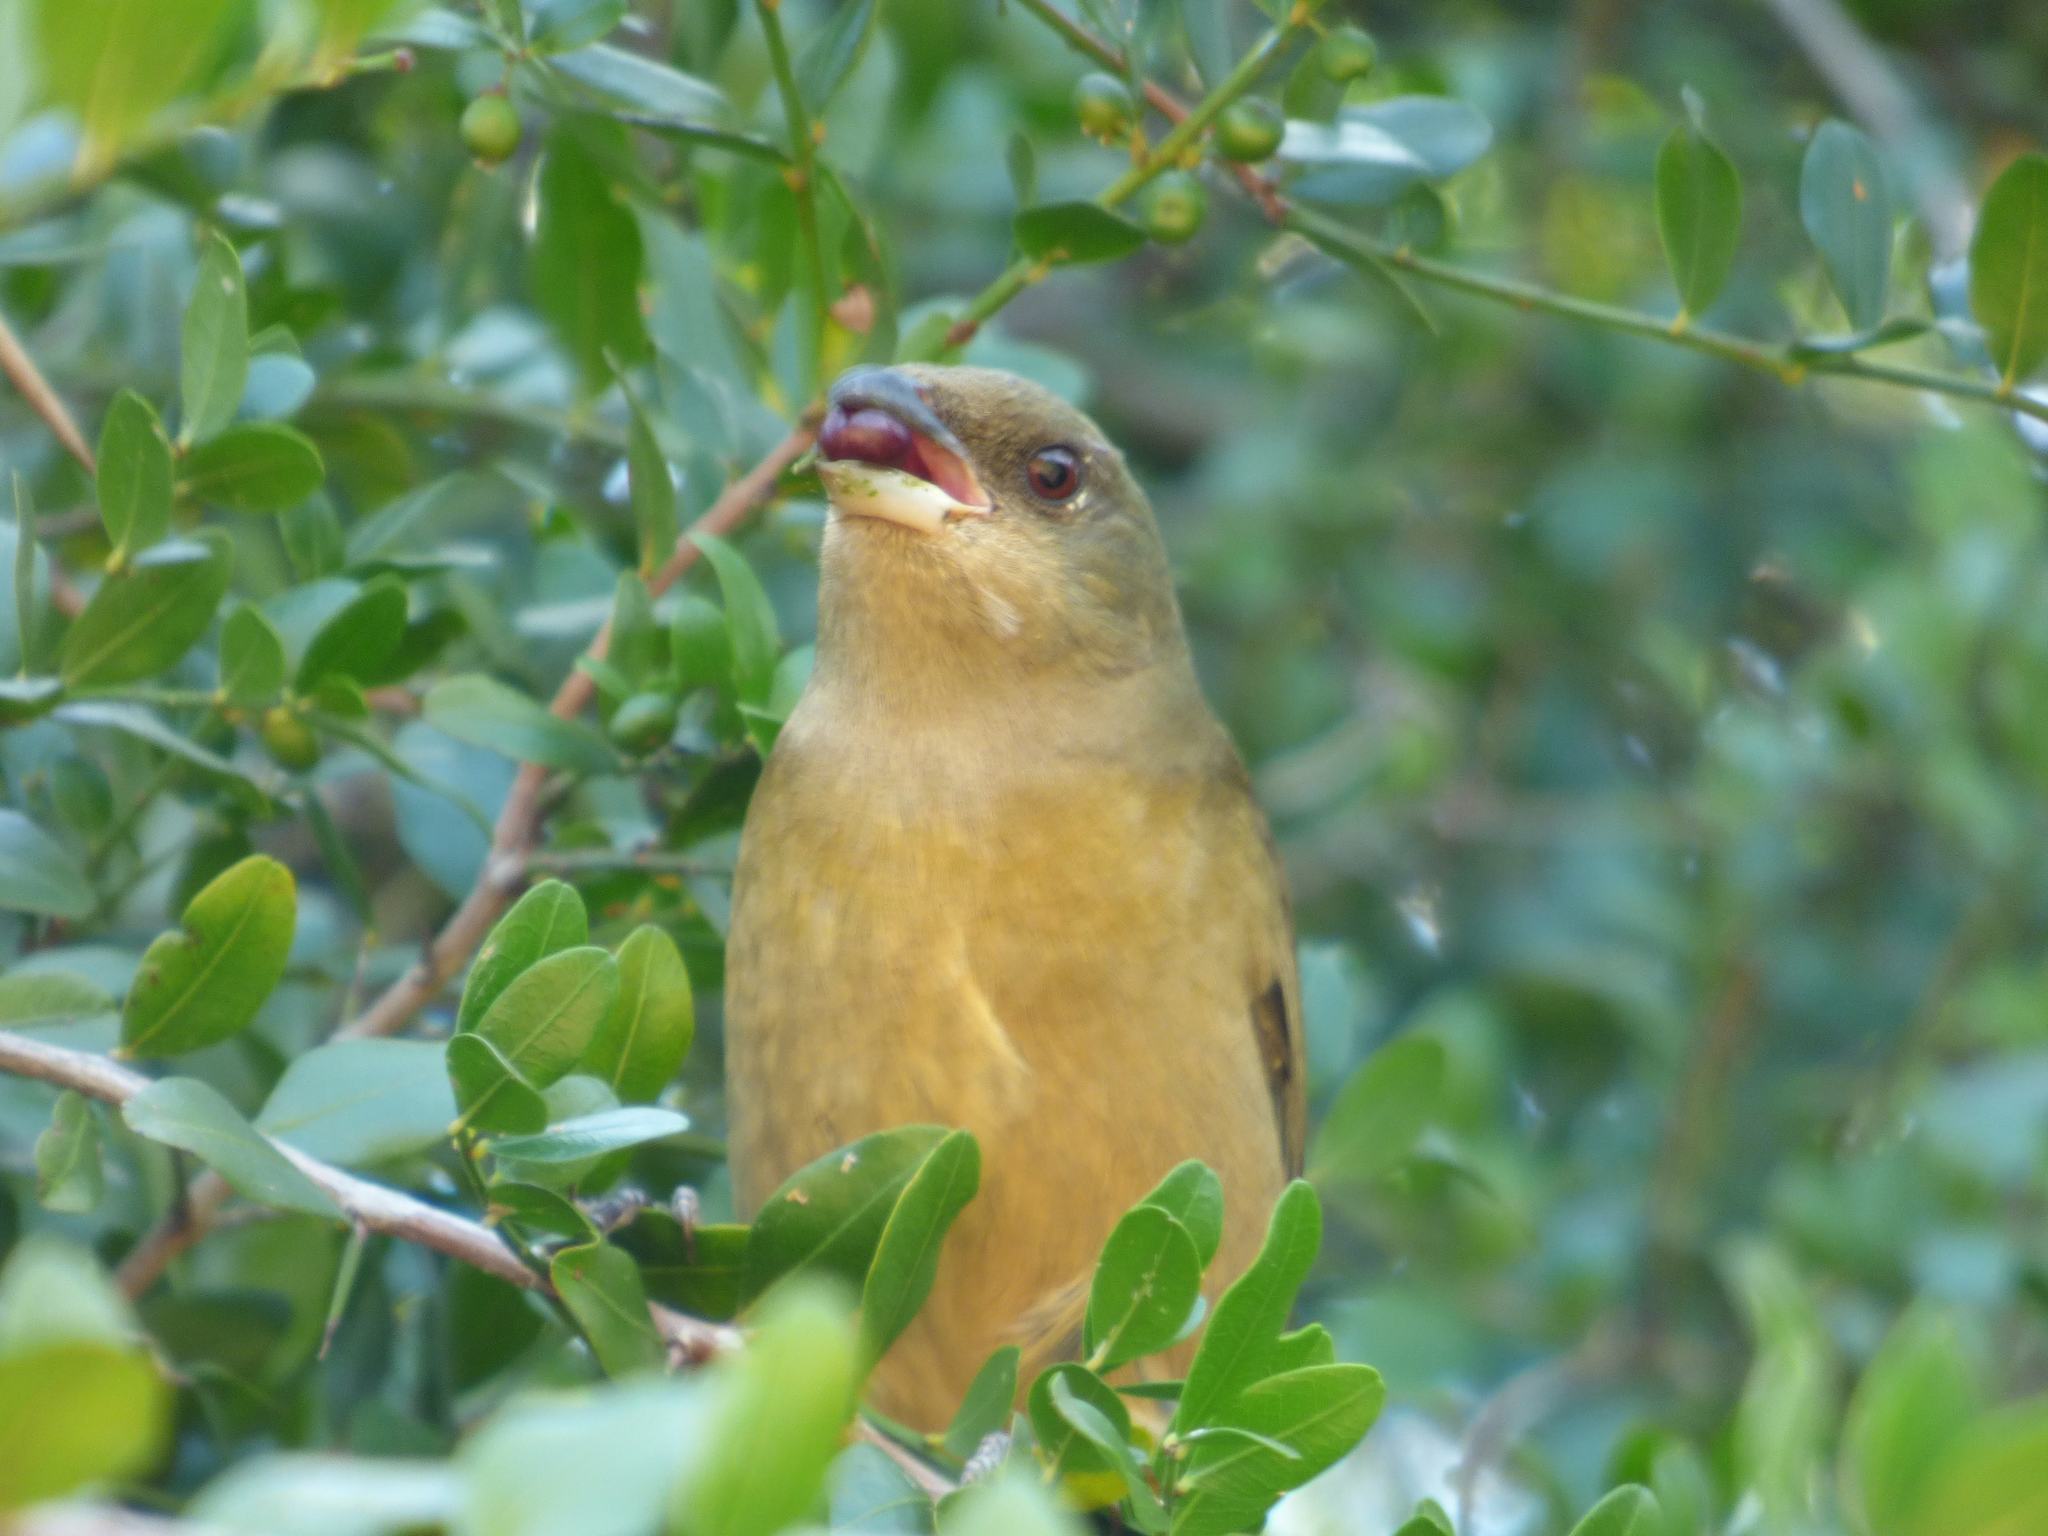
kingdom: Animalia
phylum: Chordata
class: Aves
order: Passeriformes
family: Thraupidae
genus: Rauenia
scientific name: Rauenia bonariensis
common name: Blue-and-yellow tanager
